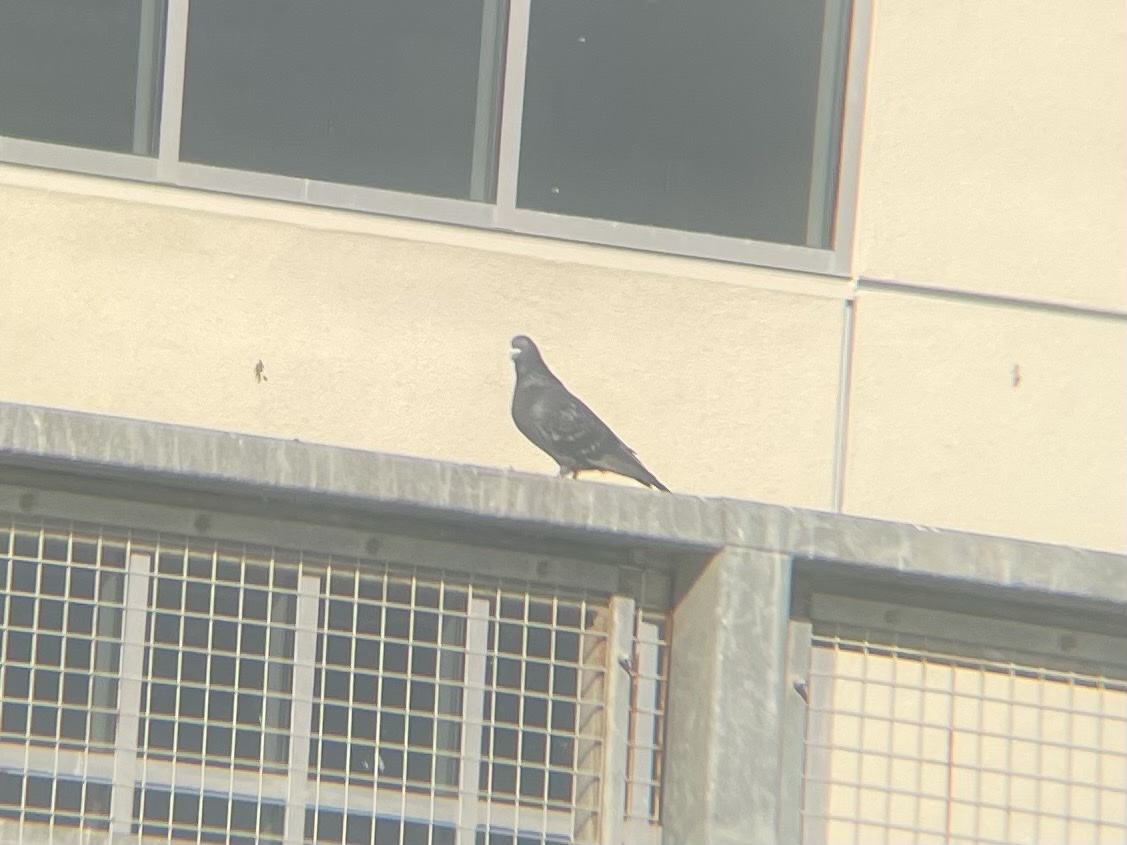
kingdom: Animalia
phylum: Chordata
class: Aves
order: Columbiformes
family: Columbidae
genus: Columba
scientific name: Columba livia
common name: Rock pigeon
